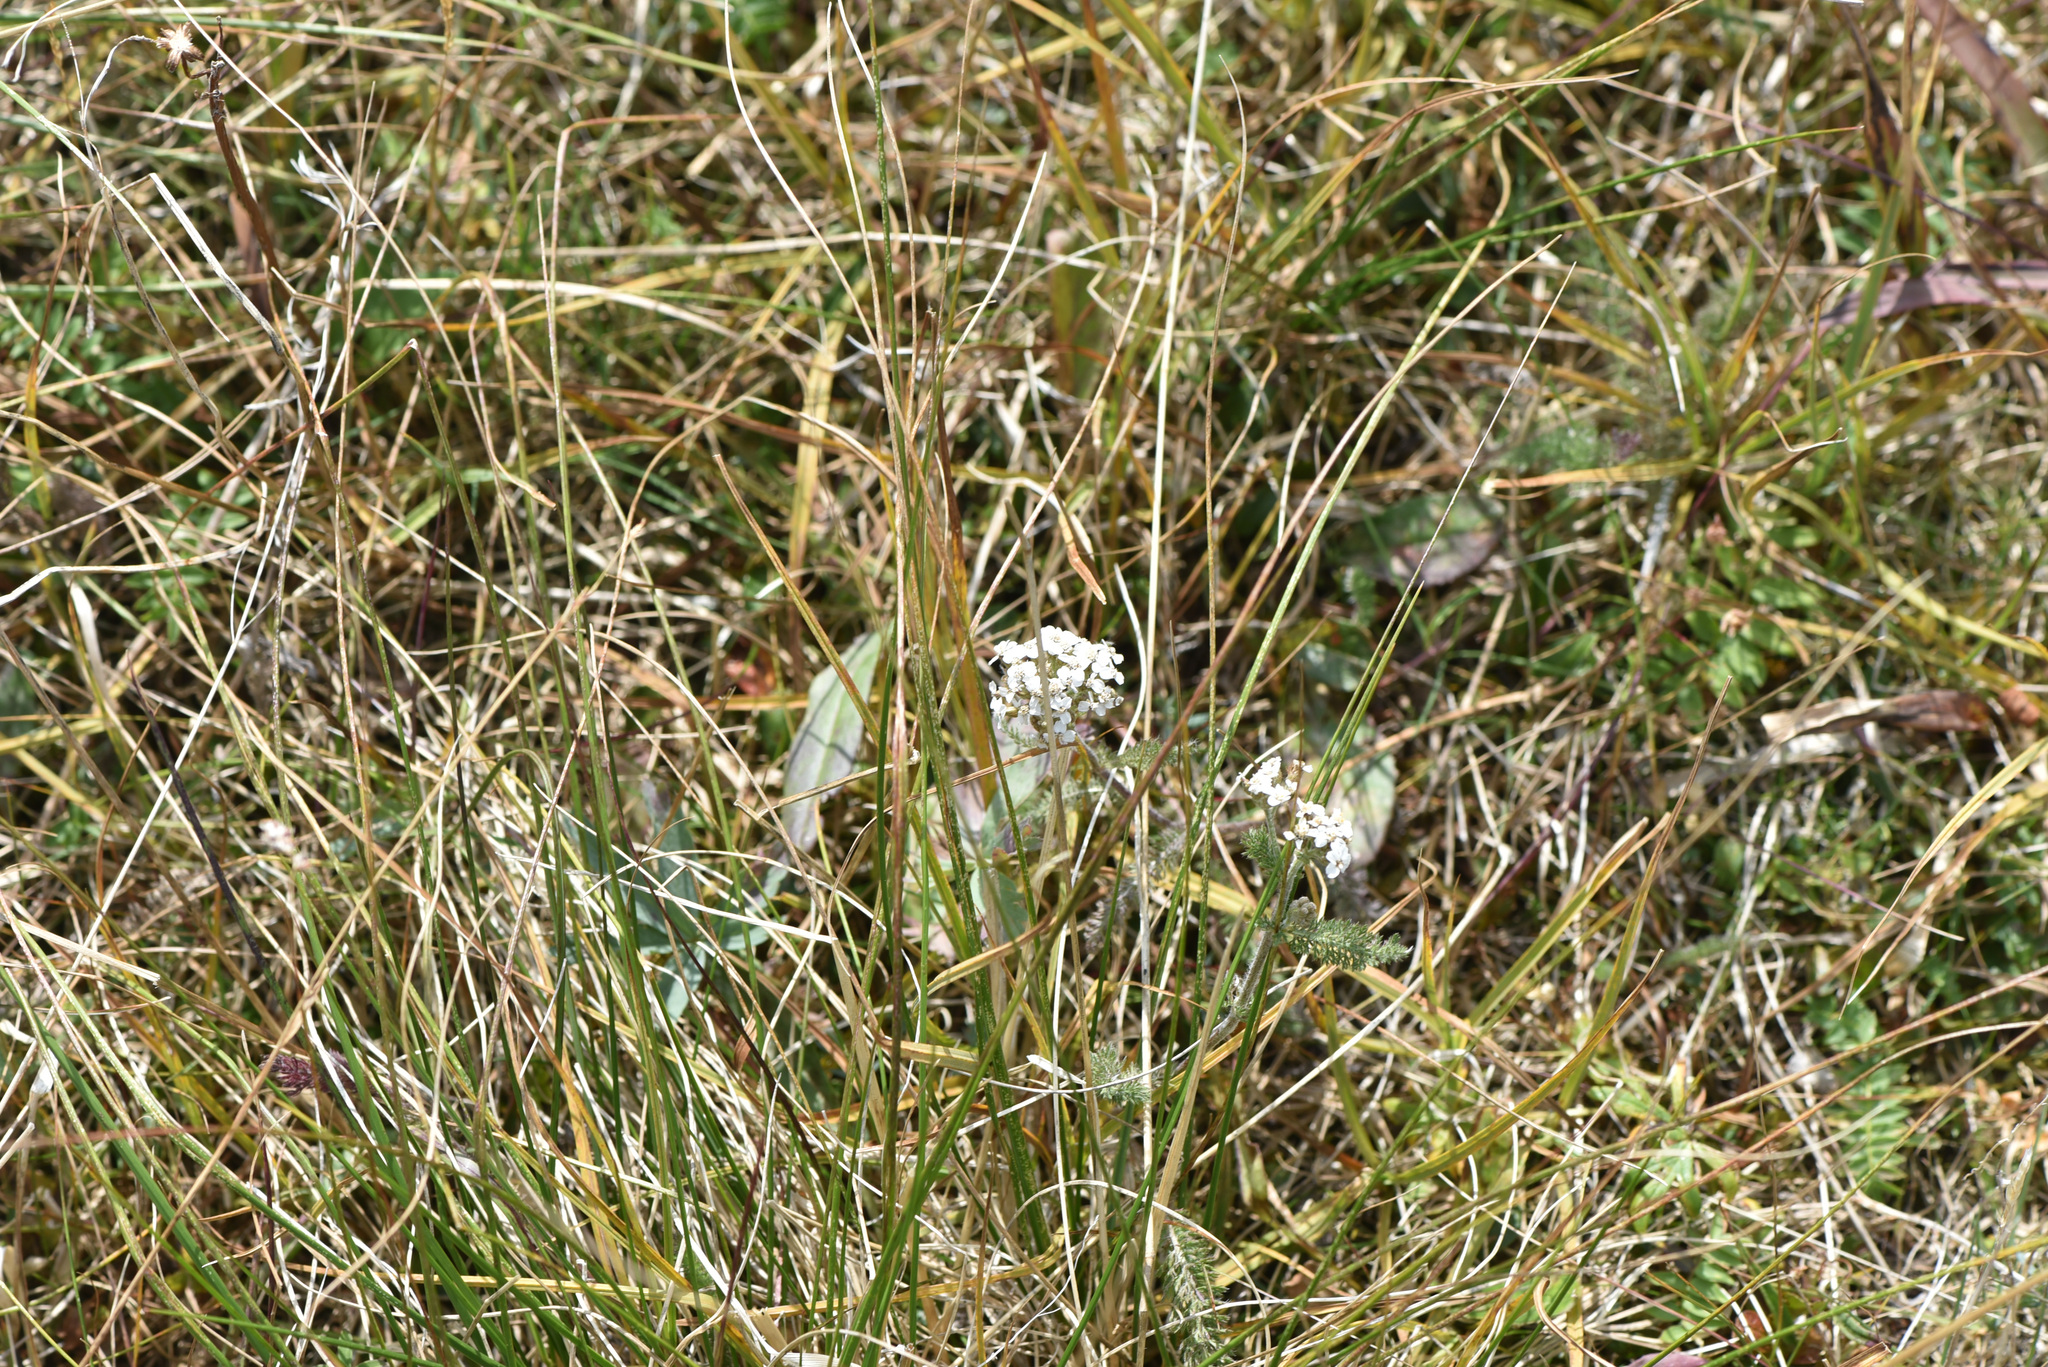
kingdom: Plantae
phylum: Tracheophyta
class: Magnoliopsida
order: Asterales
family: Asteraceae
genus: Achillea
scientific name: Achillea millefolium
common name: Yarrow
